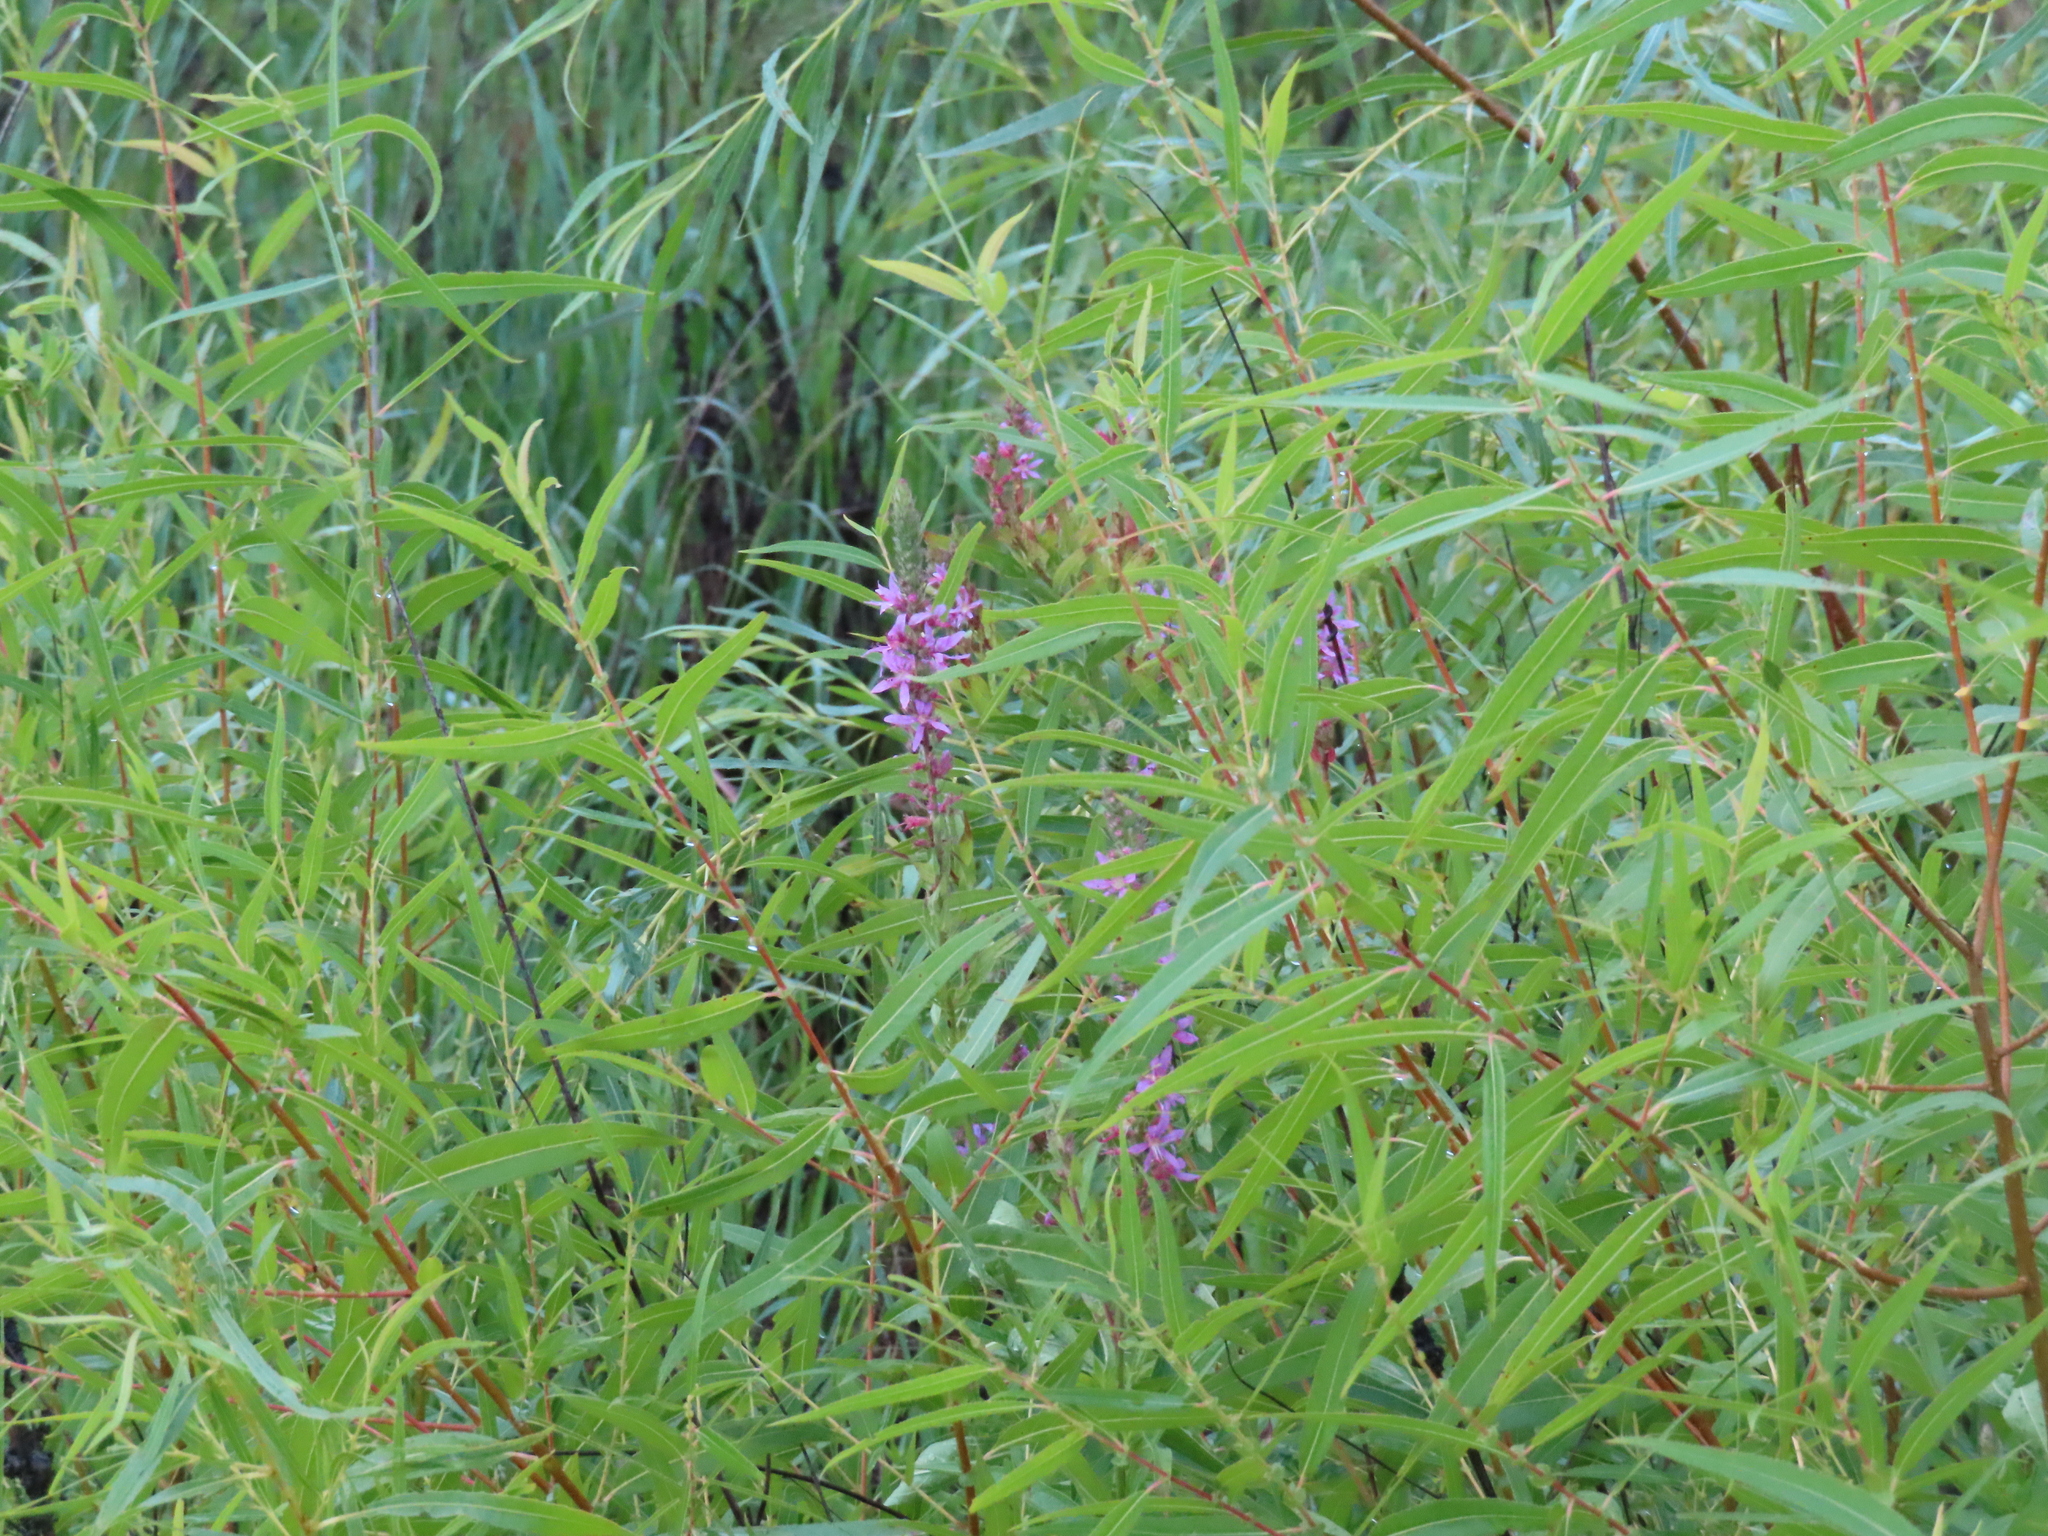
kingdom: Plantae
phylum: Tracheophyta
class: Magnoliopsida
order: Myrtales
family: Lythraceae
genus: Lythrum
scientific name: Lythrum salicaria
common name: Purple loosestrife
